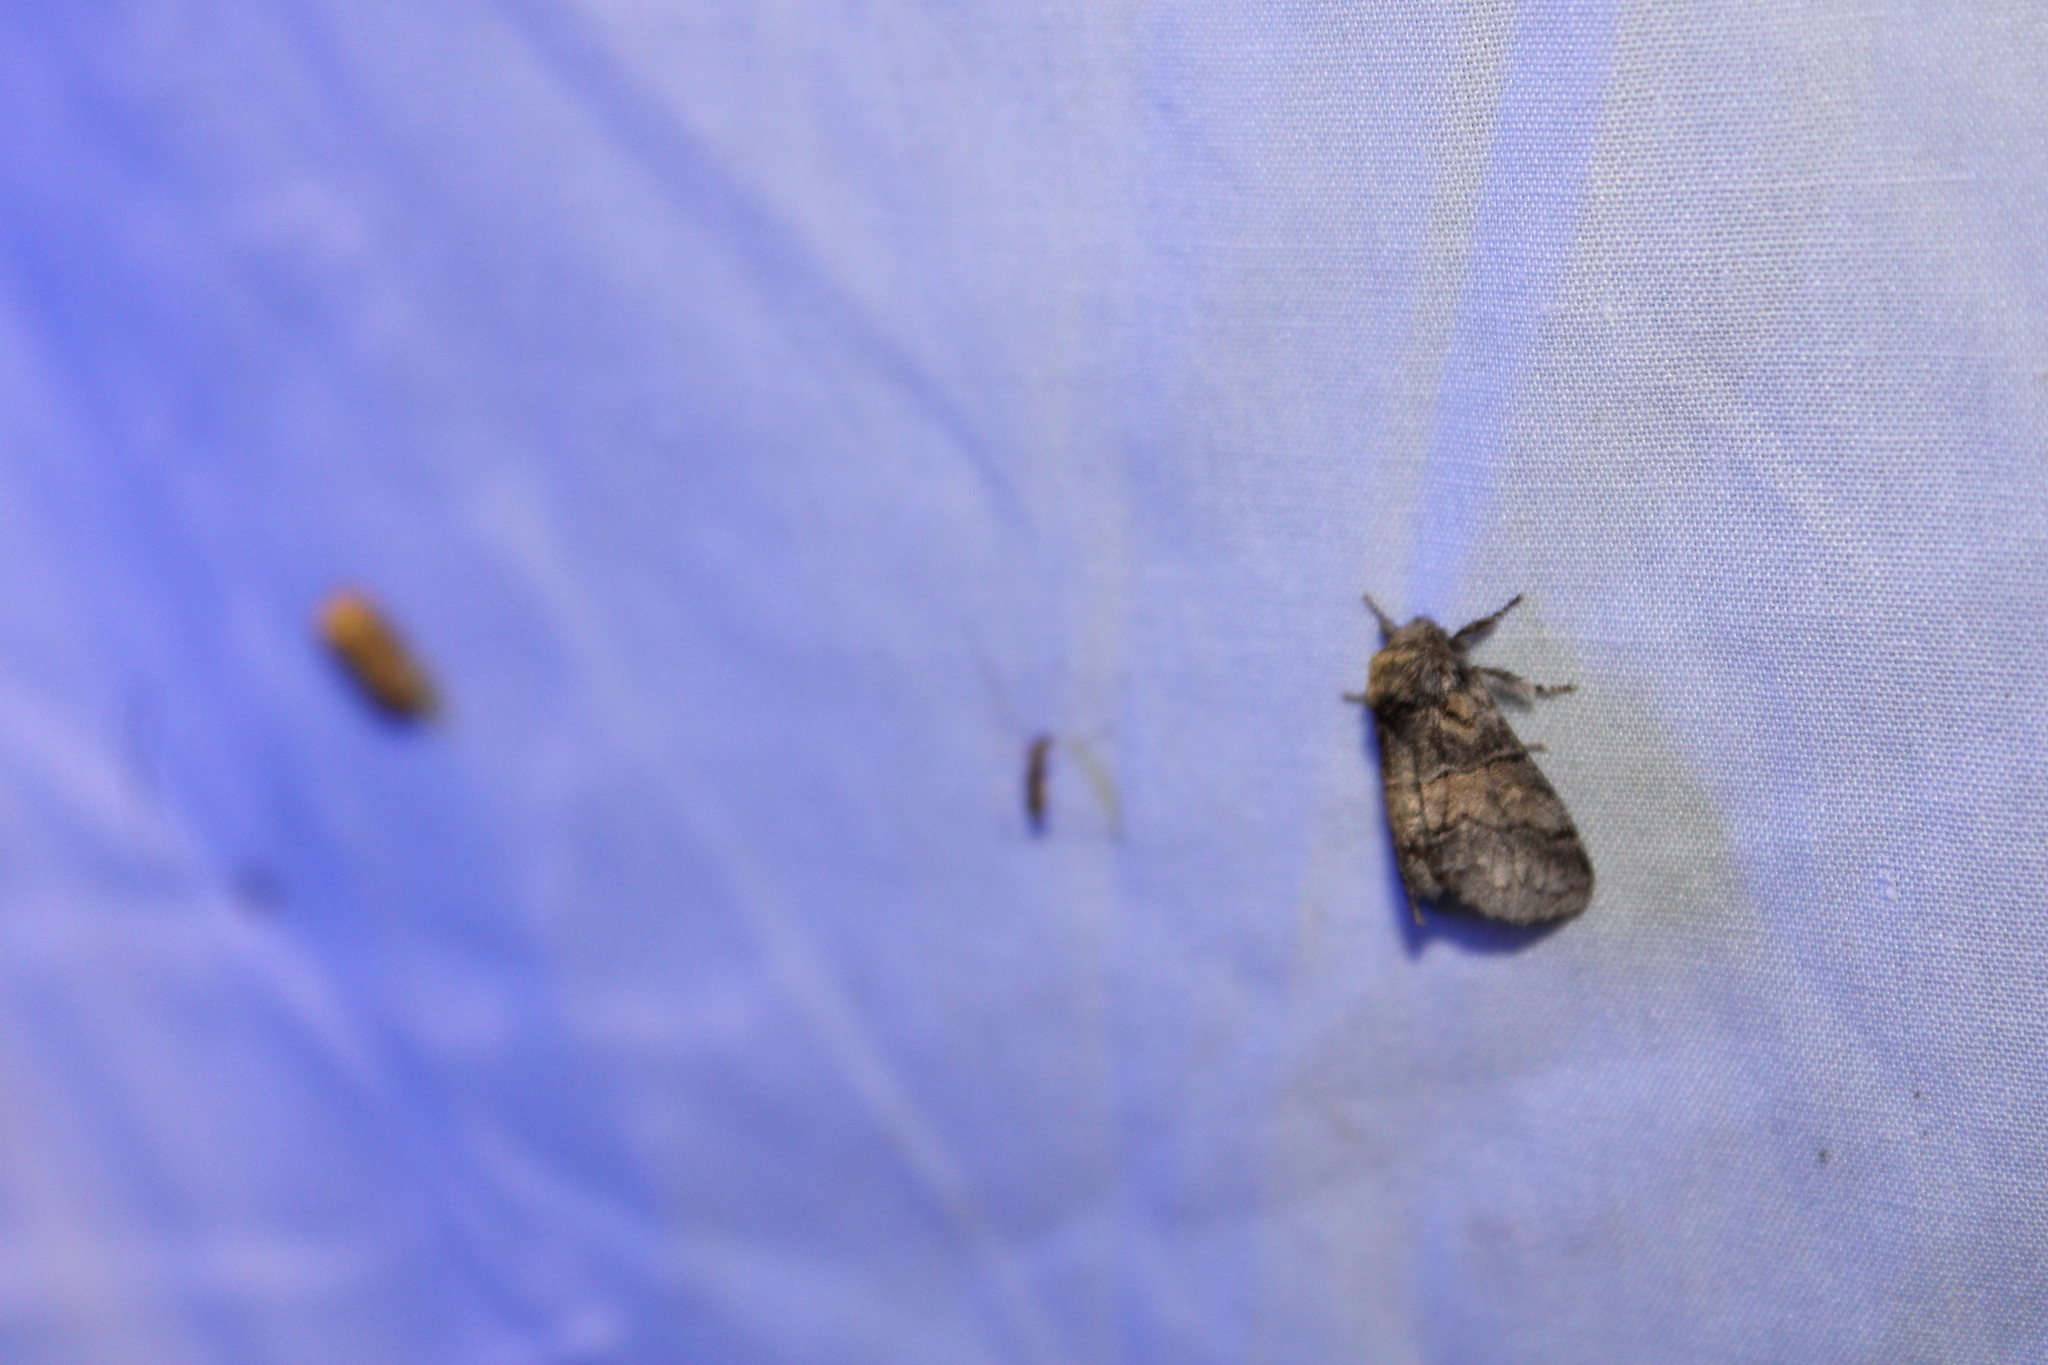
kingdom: Animalia
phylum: Arthropoda
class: Insecta
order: Lepidoptera
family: Notodontidae
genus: Gluphisia
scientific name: Gluphisia septentrionis
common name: Common gluphisia
